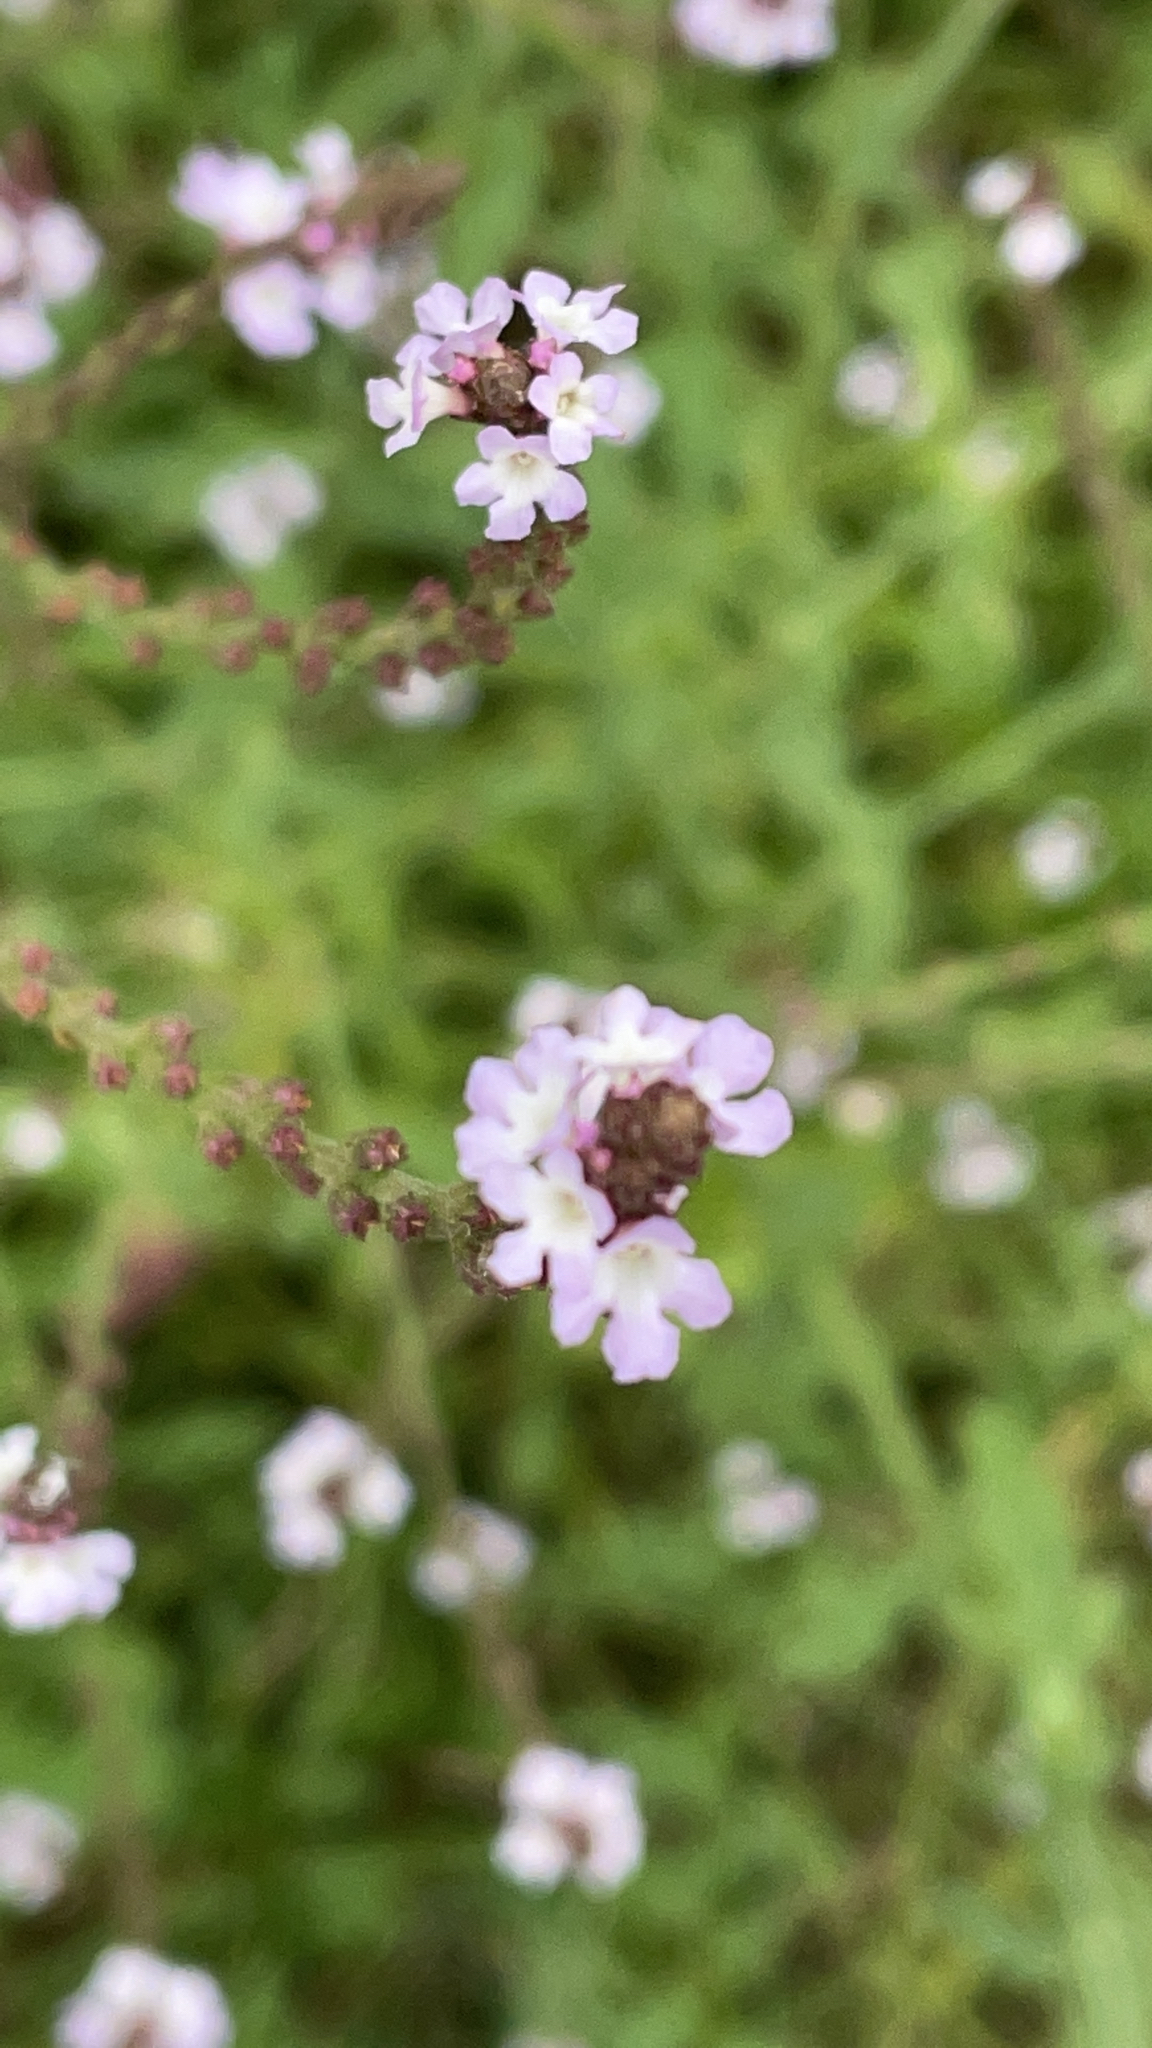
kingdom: Plantae
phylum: Tracheophyta
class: Magnoliopsida
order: Lamiales
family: Verbenaceae
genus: Verbena
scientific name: Verbena officinalis
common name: Vervain
